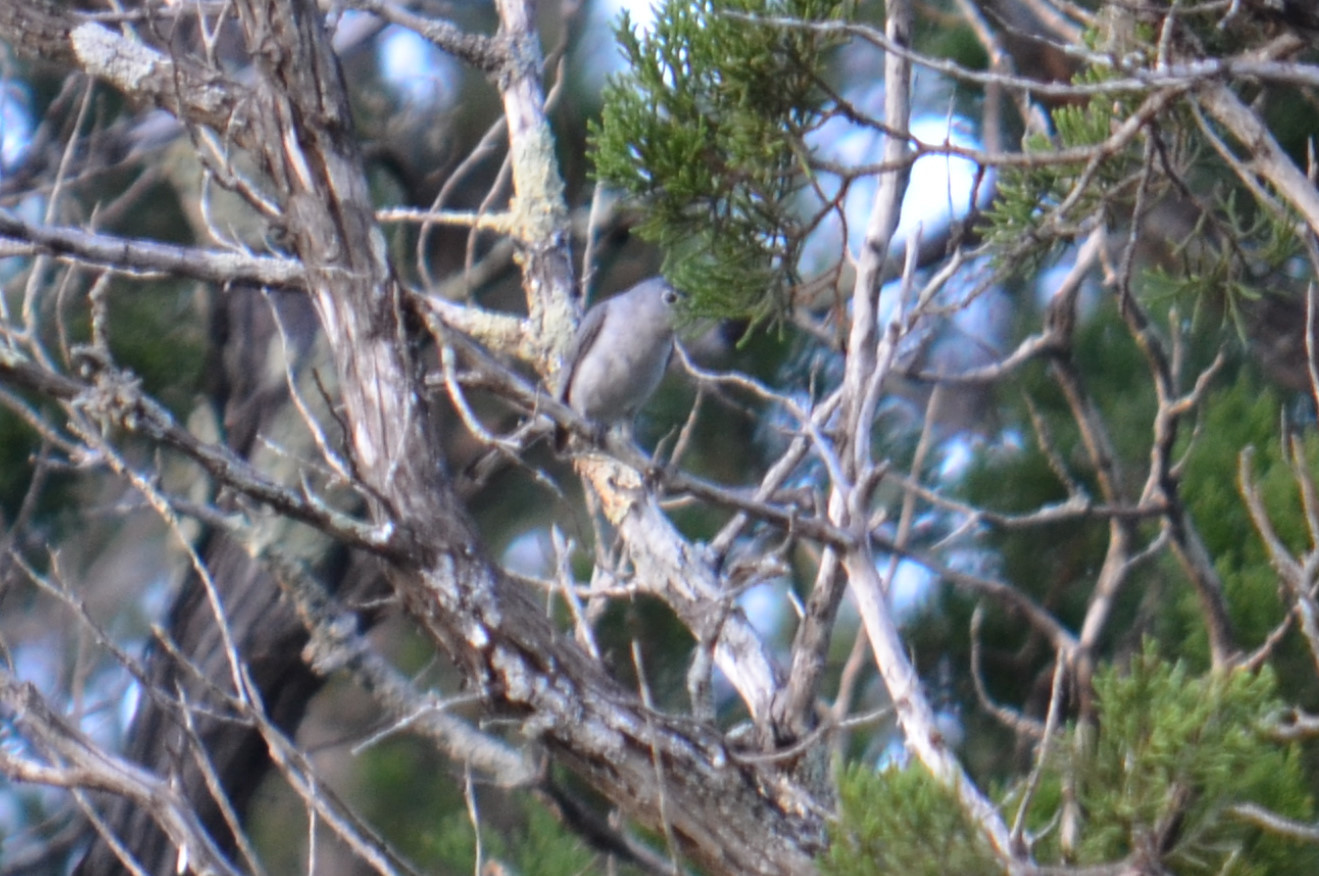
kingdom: Animalia
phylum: Chordata
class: Aves
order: Passeriformes
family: Polioptilidae
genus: Polioptila
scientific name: Polioptila caerulea
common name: Blue-gray gnatcatcher
